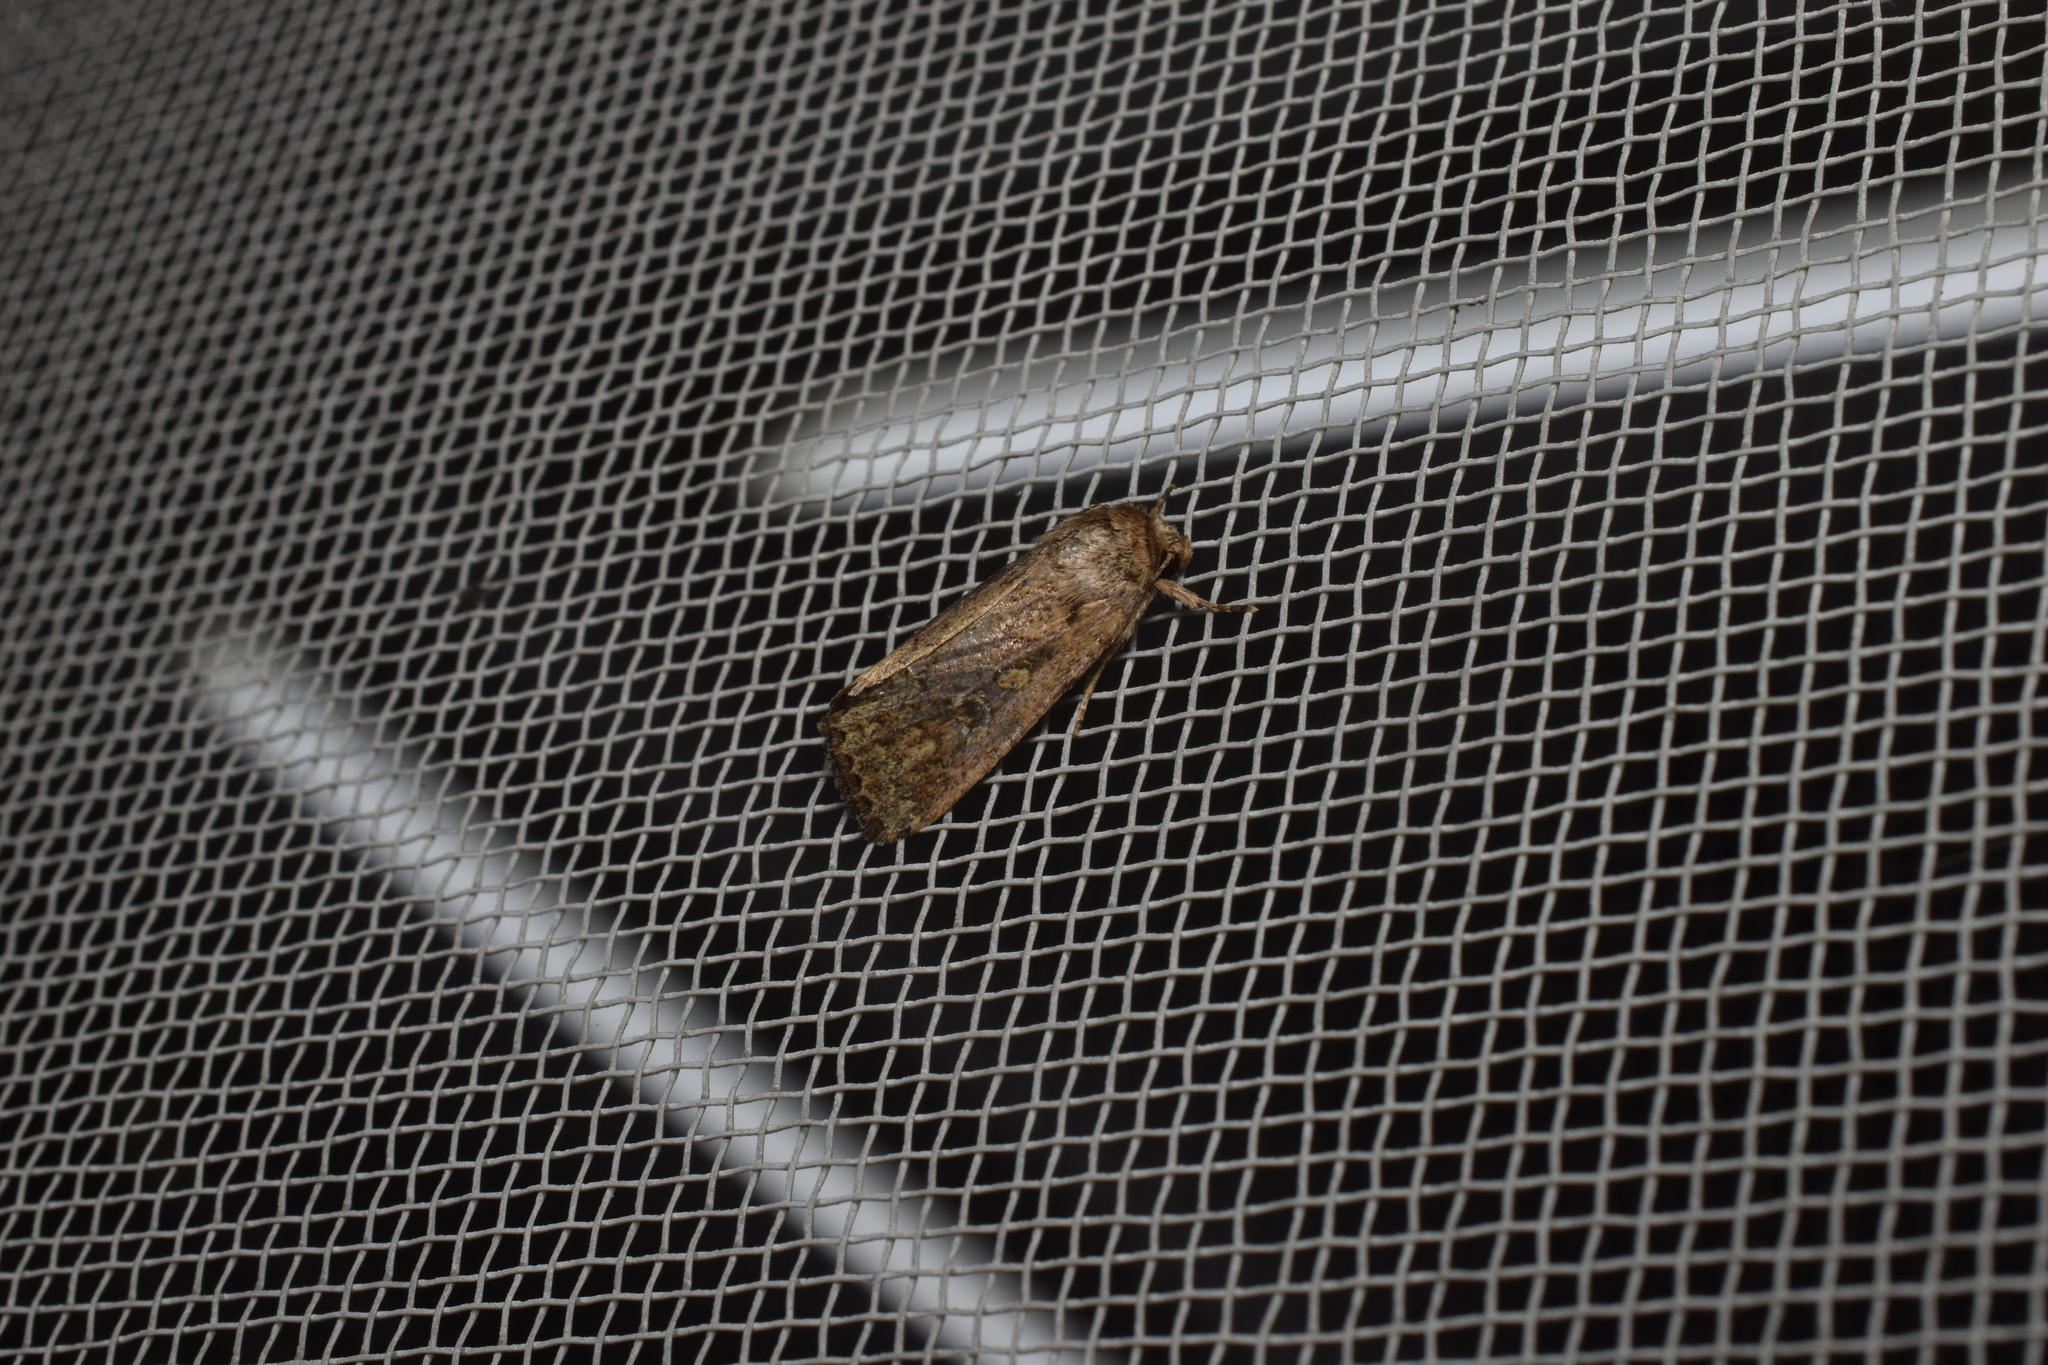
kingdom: Animalia
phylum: Arthropoda
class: Insecta
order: Lepidoptera
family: Noctuidae
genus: Spodoptera
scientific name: Spodoptera depravata
